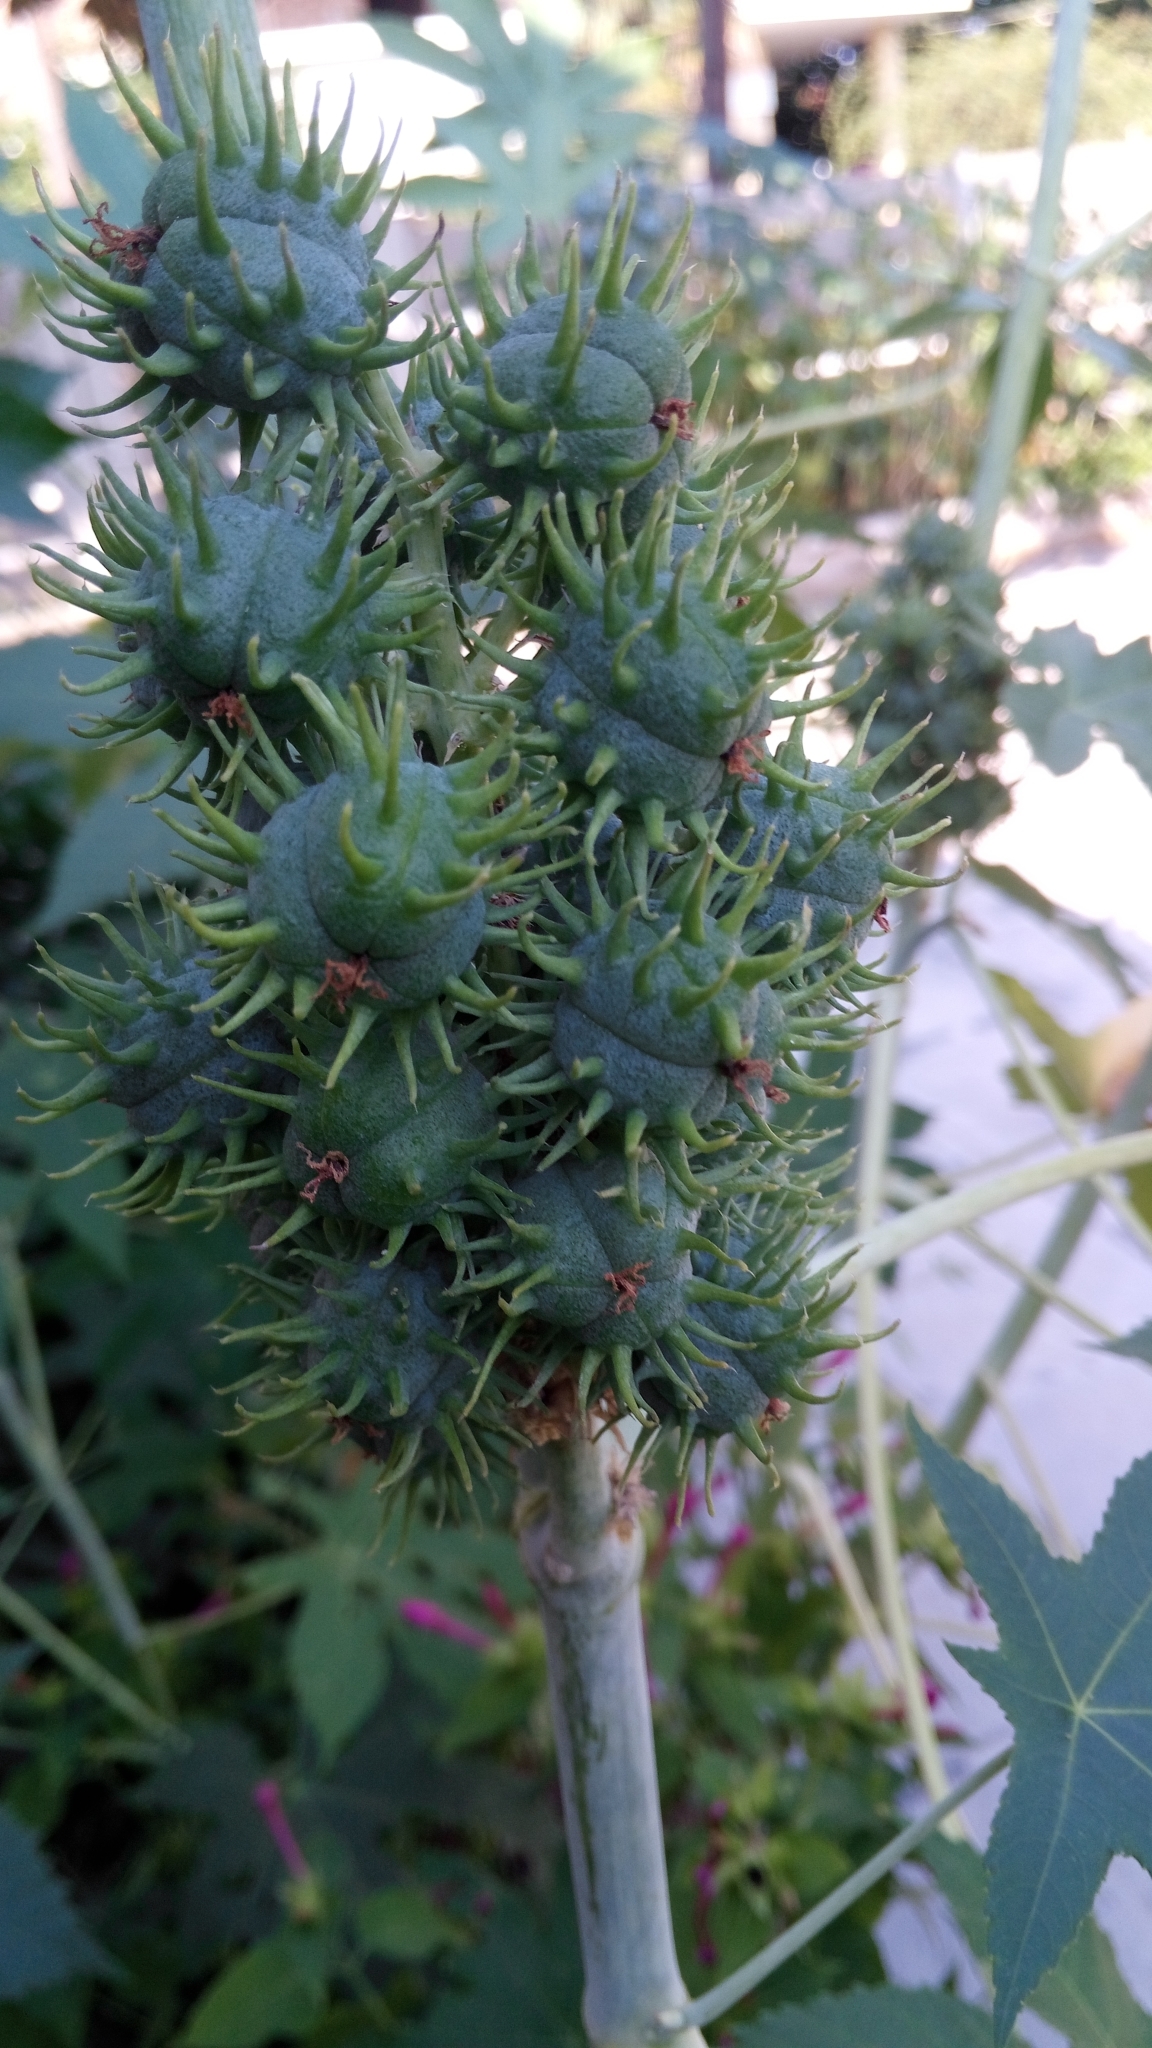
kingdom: Plantae
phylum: Tracheophyta
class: Magnoliopsida
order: Malpighiales
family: Euphorbiaceae
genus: Ricinus
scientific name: Ricinus communis
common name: Castor-oil-plant
